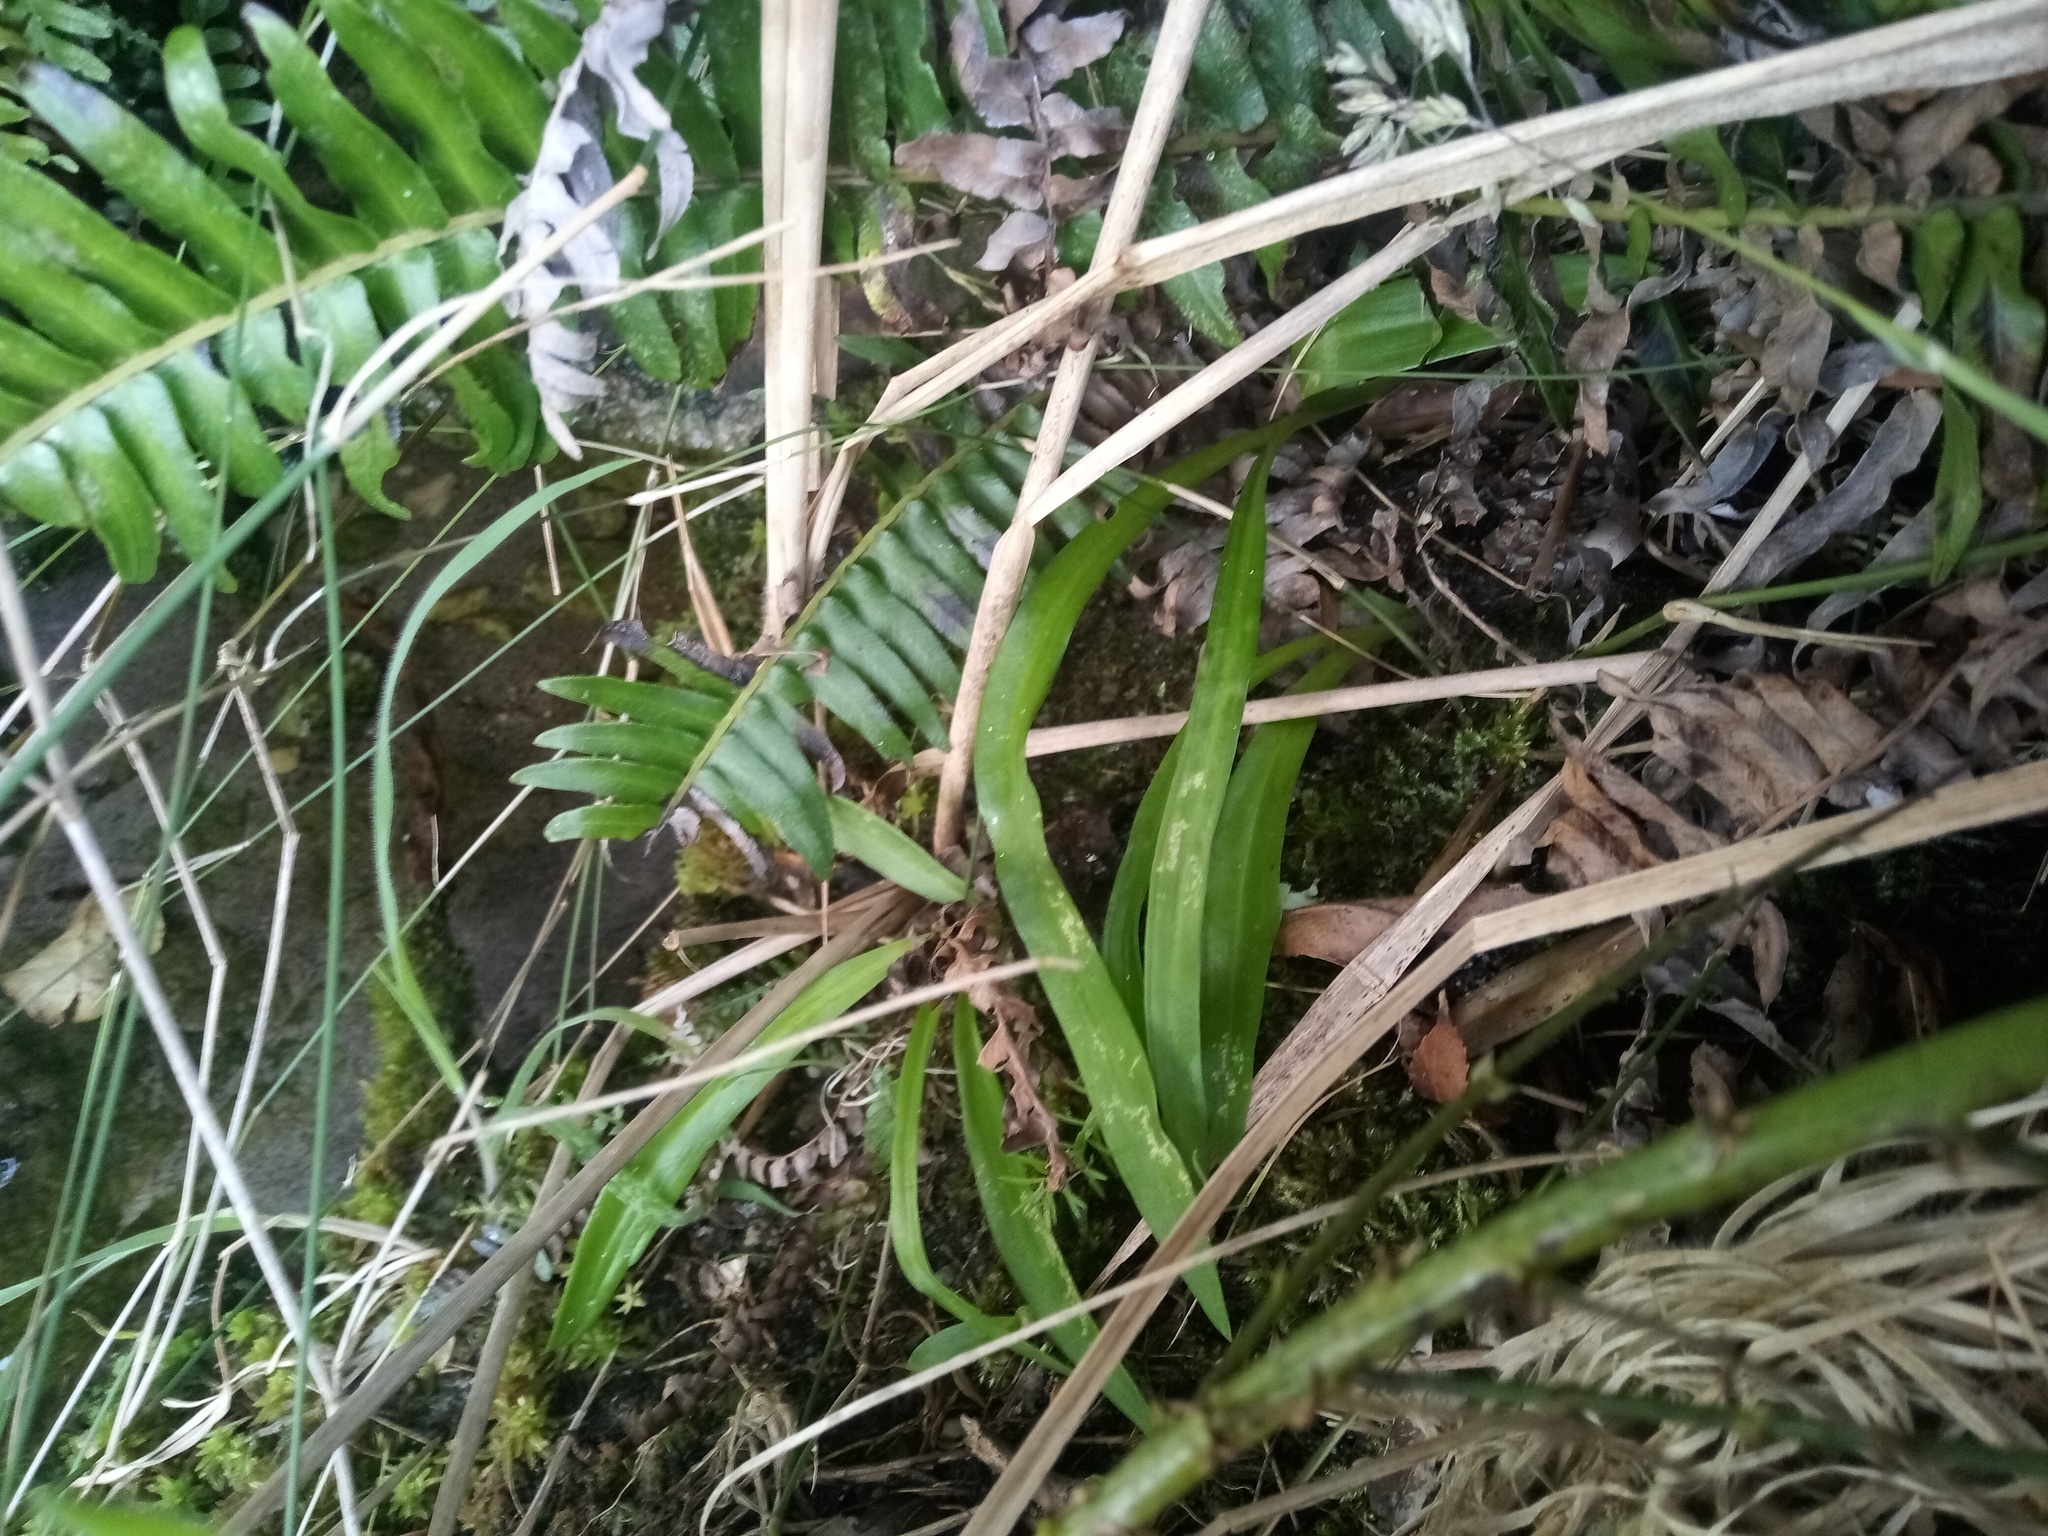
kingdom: Plantae
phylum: Tracheophyta
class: Liliopsida
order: Asparagales
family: Orchidaceae
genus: Disa
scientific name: Disa uniflora
